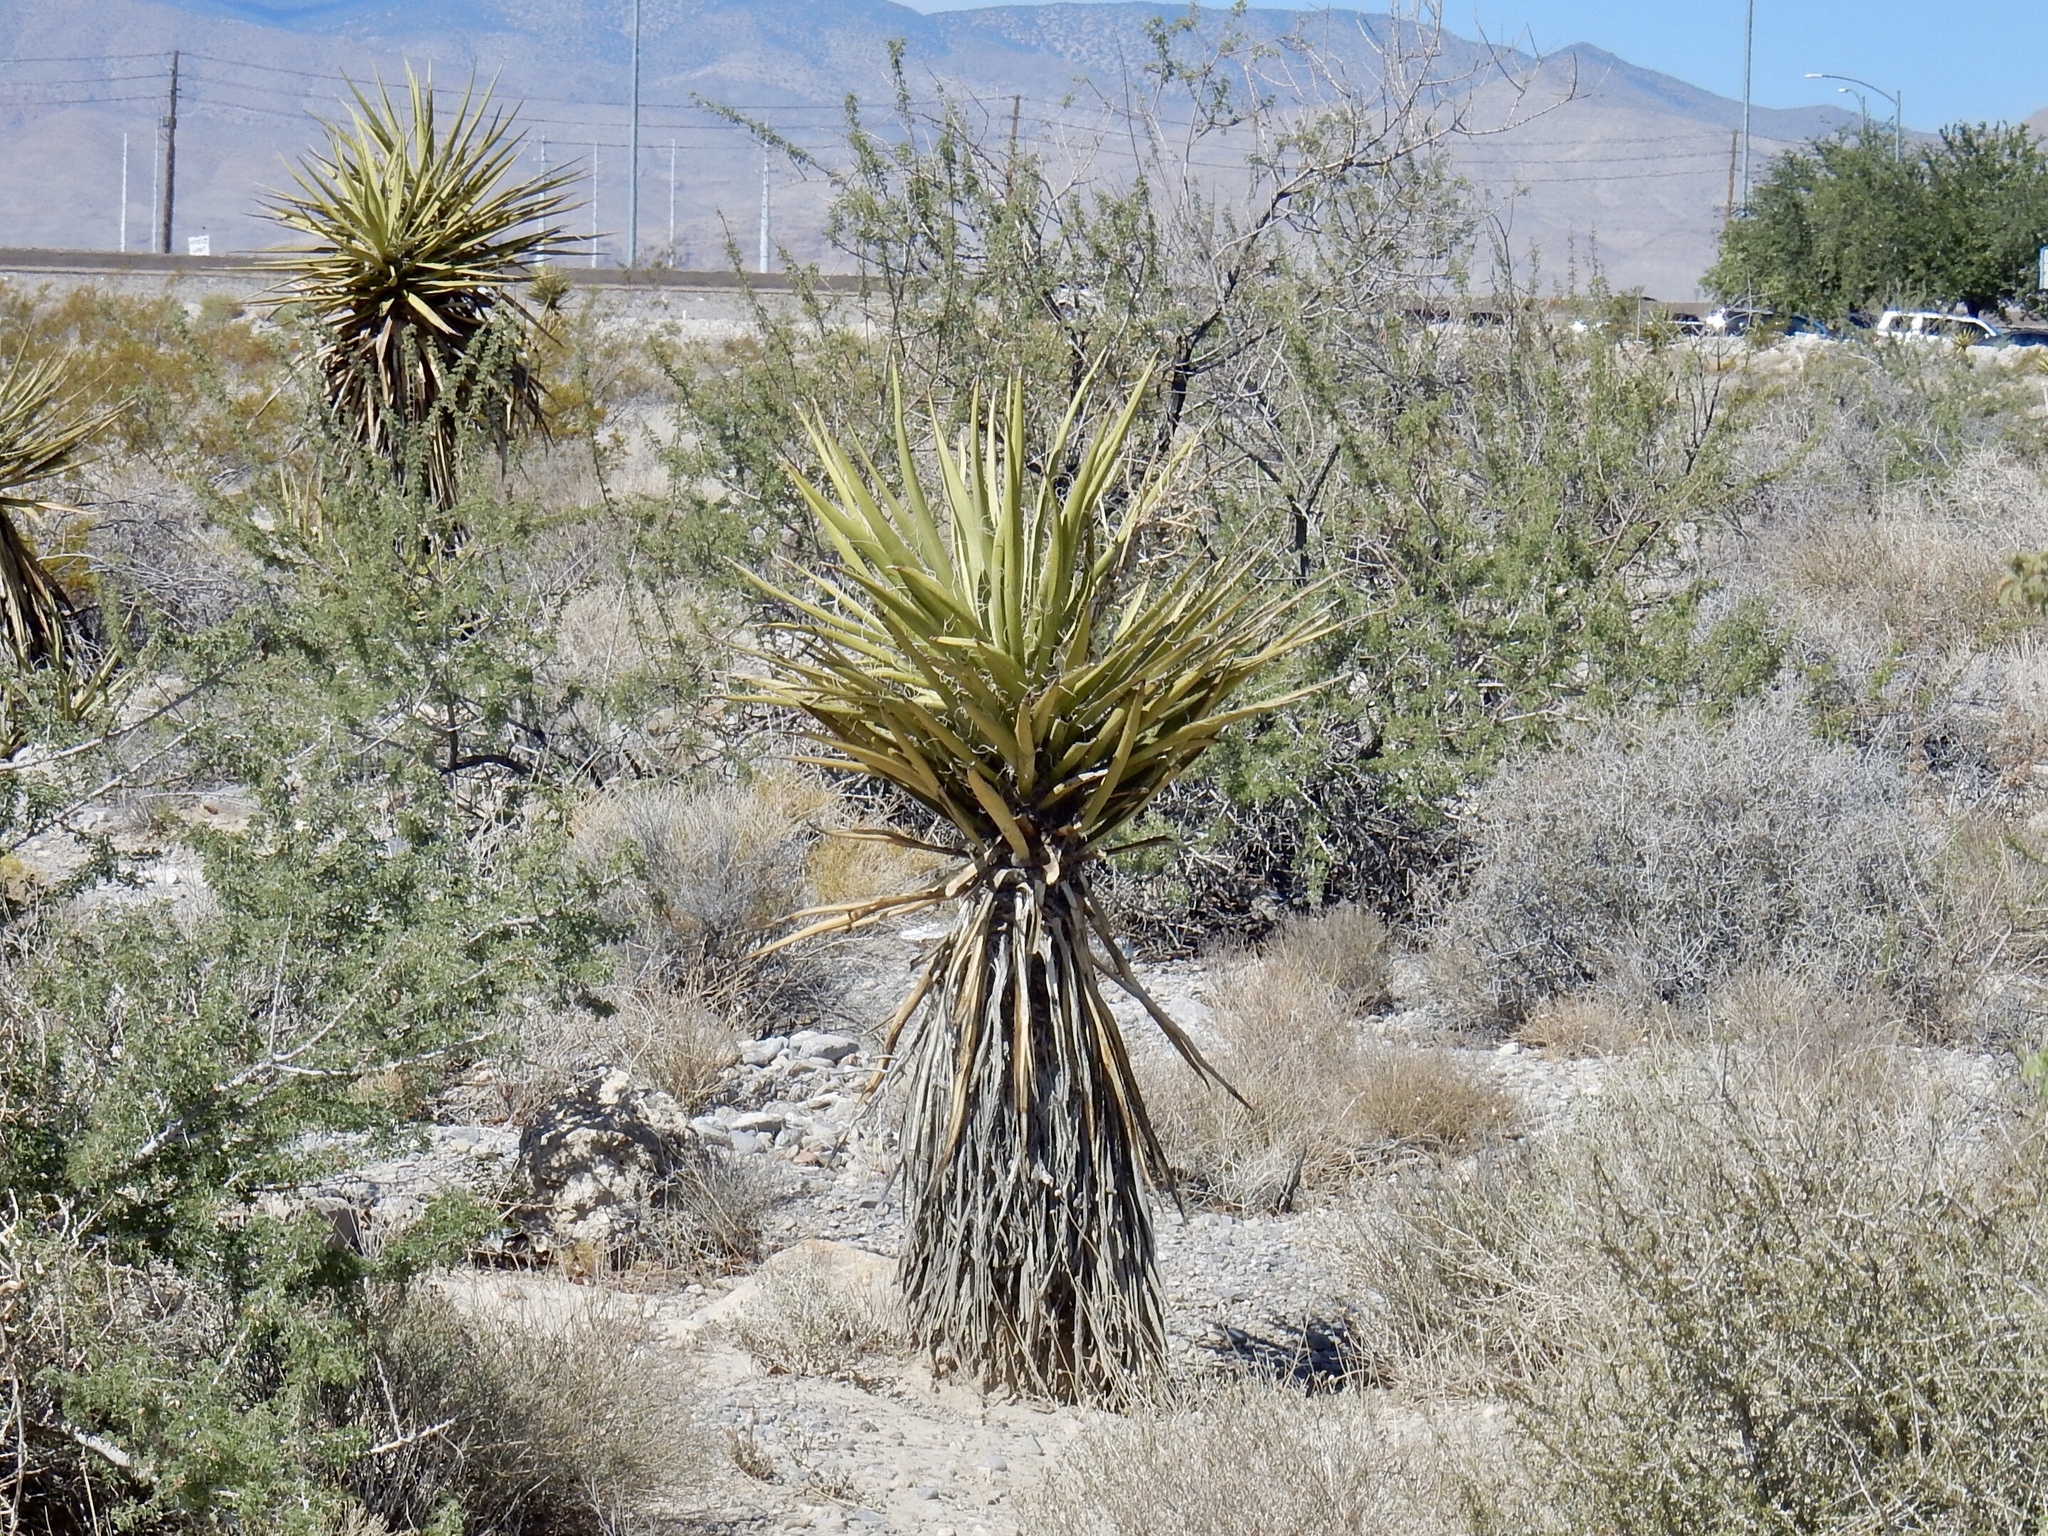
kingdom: Plantae
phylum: Tracheophyta
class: Liliopsida
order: Asparagales
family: Asparagaceae
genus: Yucca
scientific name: Yucca schidigera
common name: Mojave yucca
